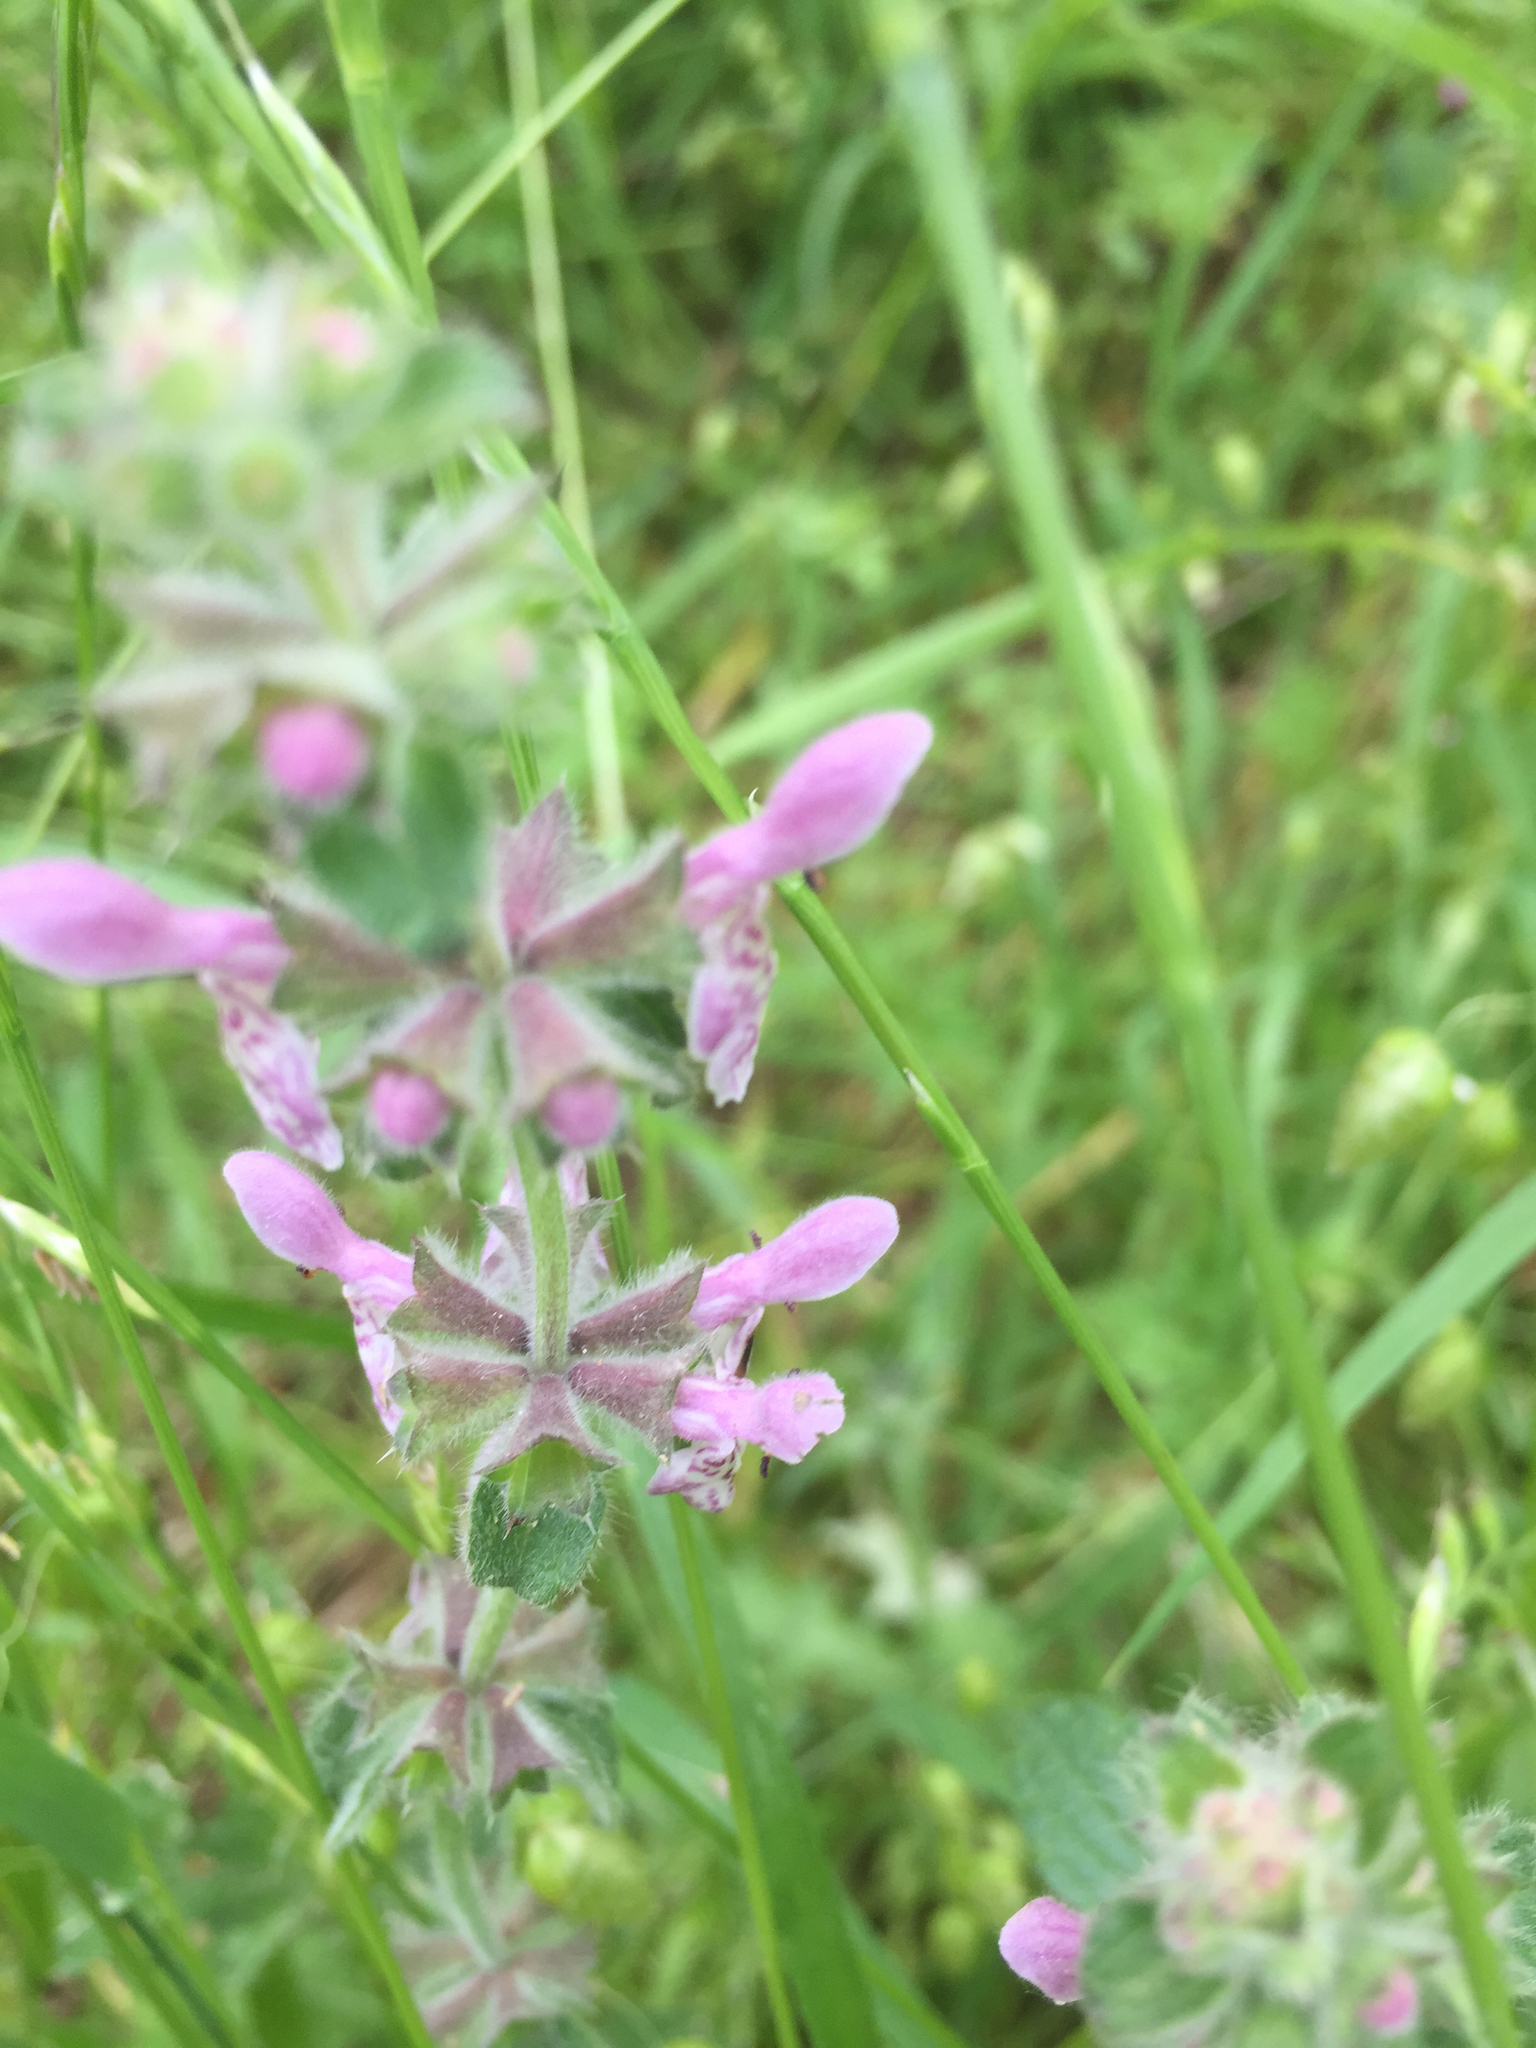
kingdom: Plantae
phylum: Tracheophyta
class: Magnoliopsida
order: Lamiales
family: Lamiaceae
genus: Stachys
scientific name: Stachys bullata
